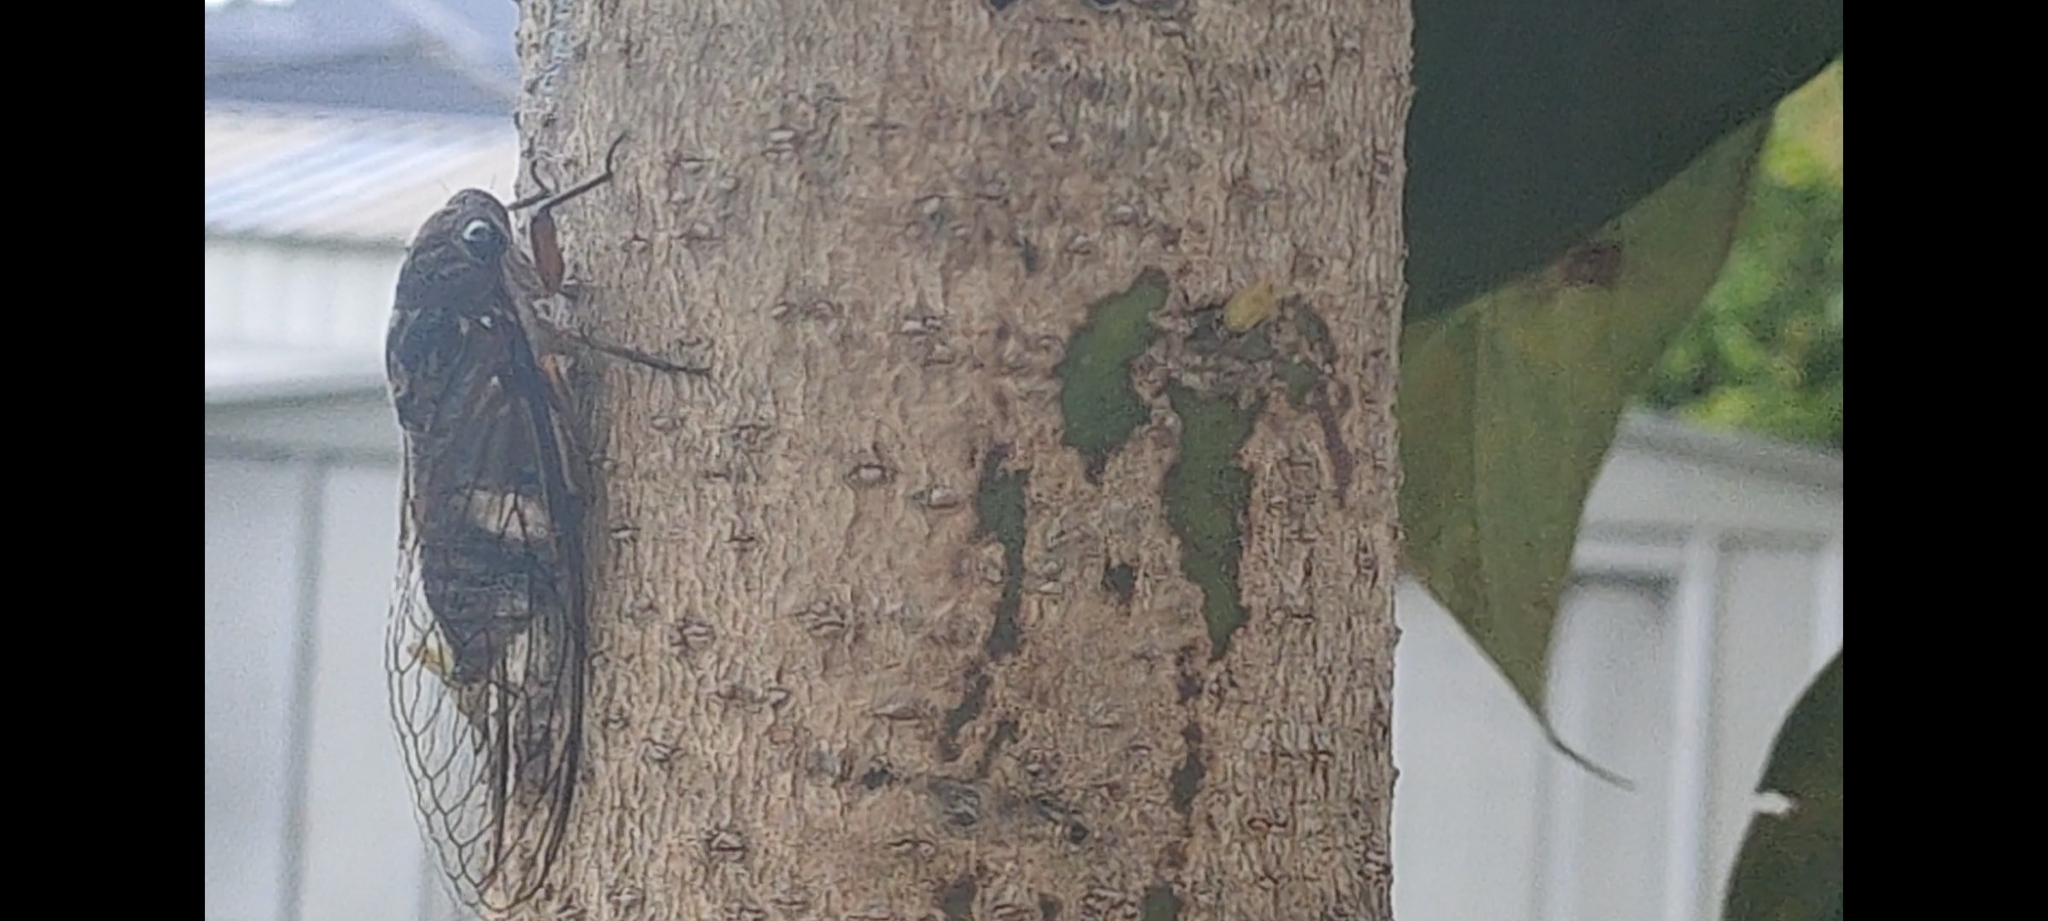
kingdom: Animalia
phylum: Arthropoda
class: Insecta
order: Hemiptera
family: Cicadidae
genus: Psaltoda
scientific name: Psaltoda plaga
